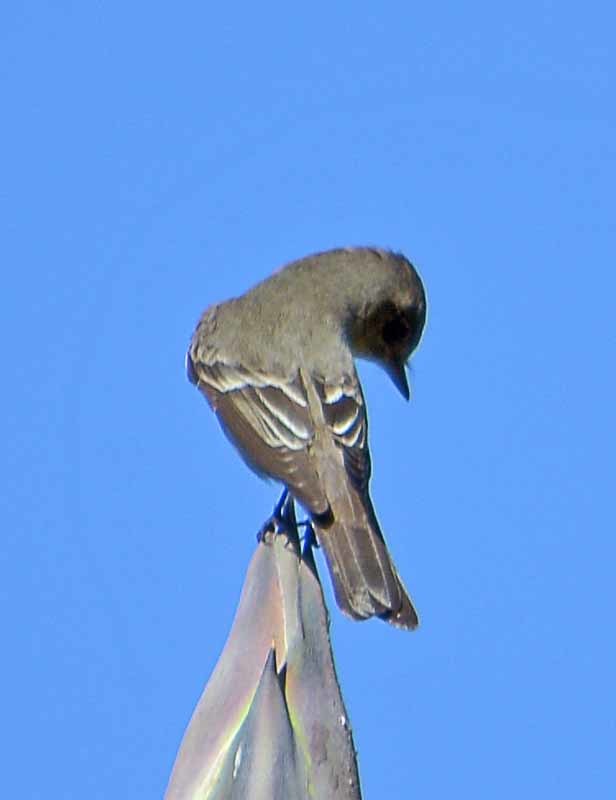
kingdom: Animalia
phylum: Chordata
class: Aves
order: Passeriformes
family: Tyrannidae
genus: Contopus
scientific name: Contopus sordidulus
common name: Western wood-pewee
